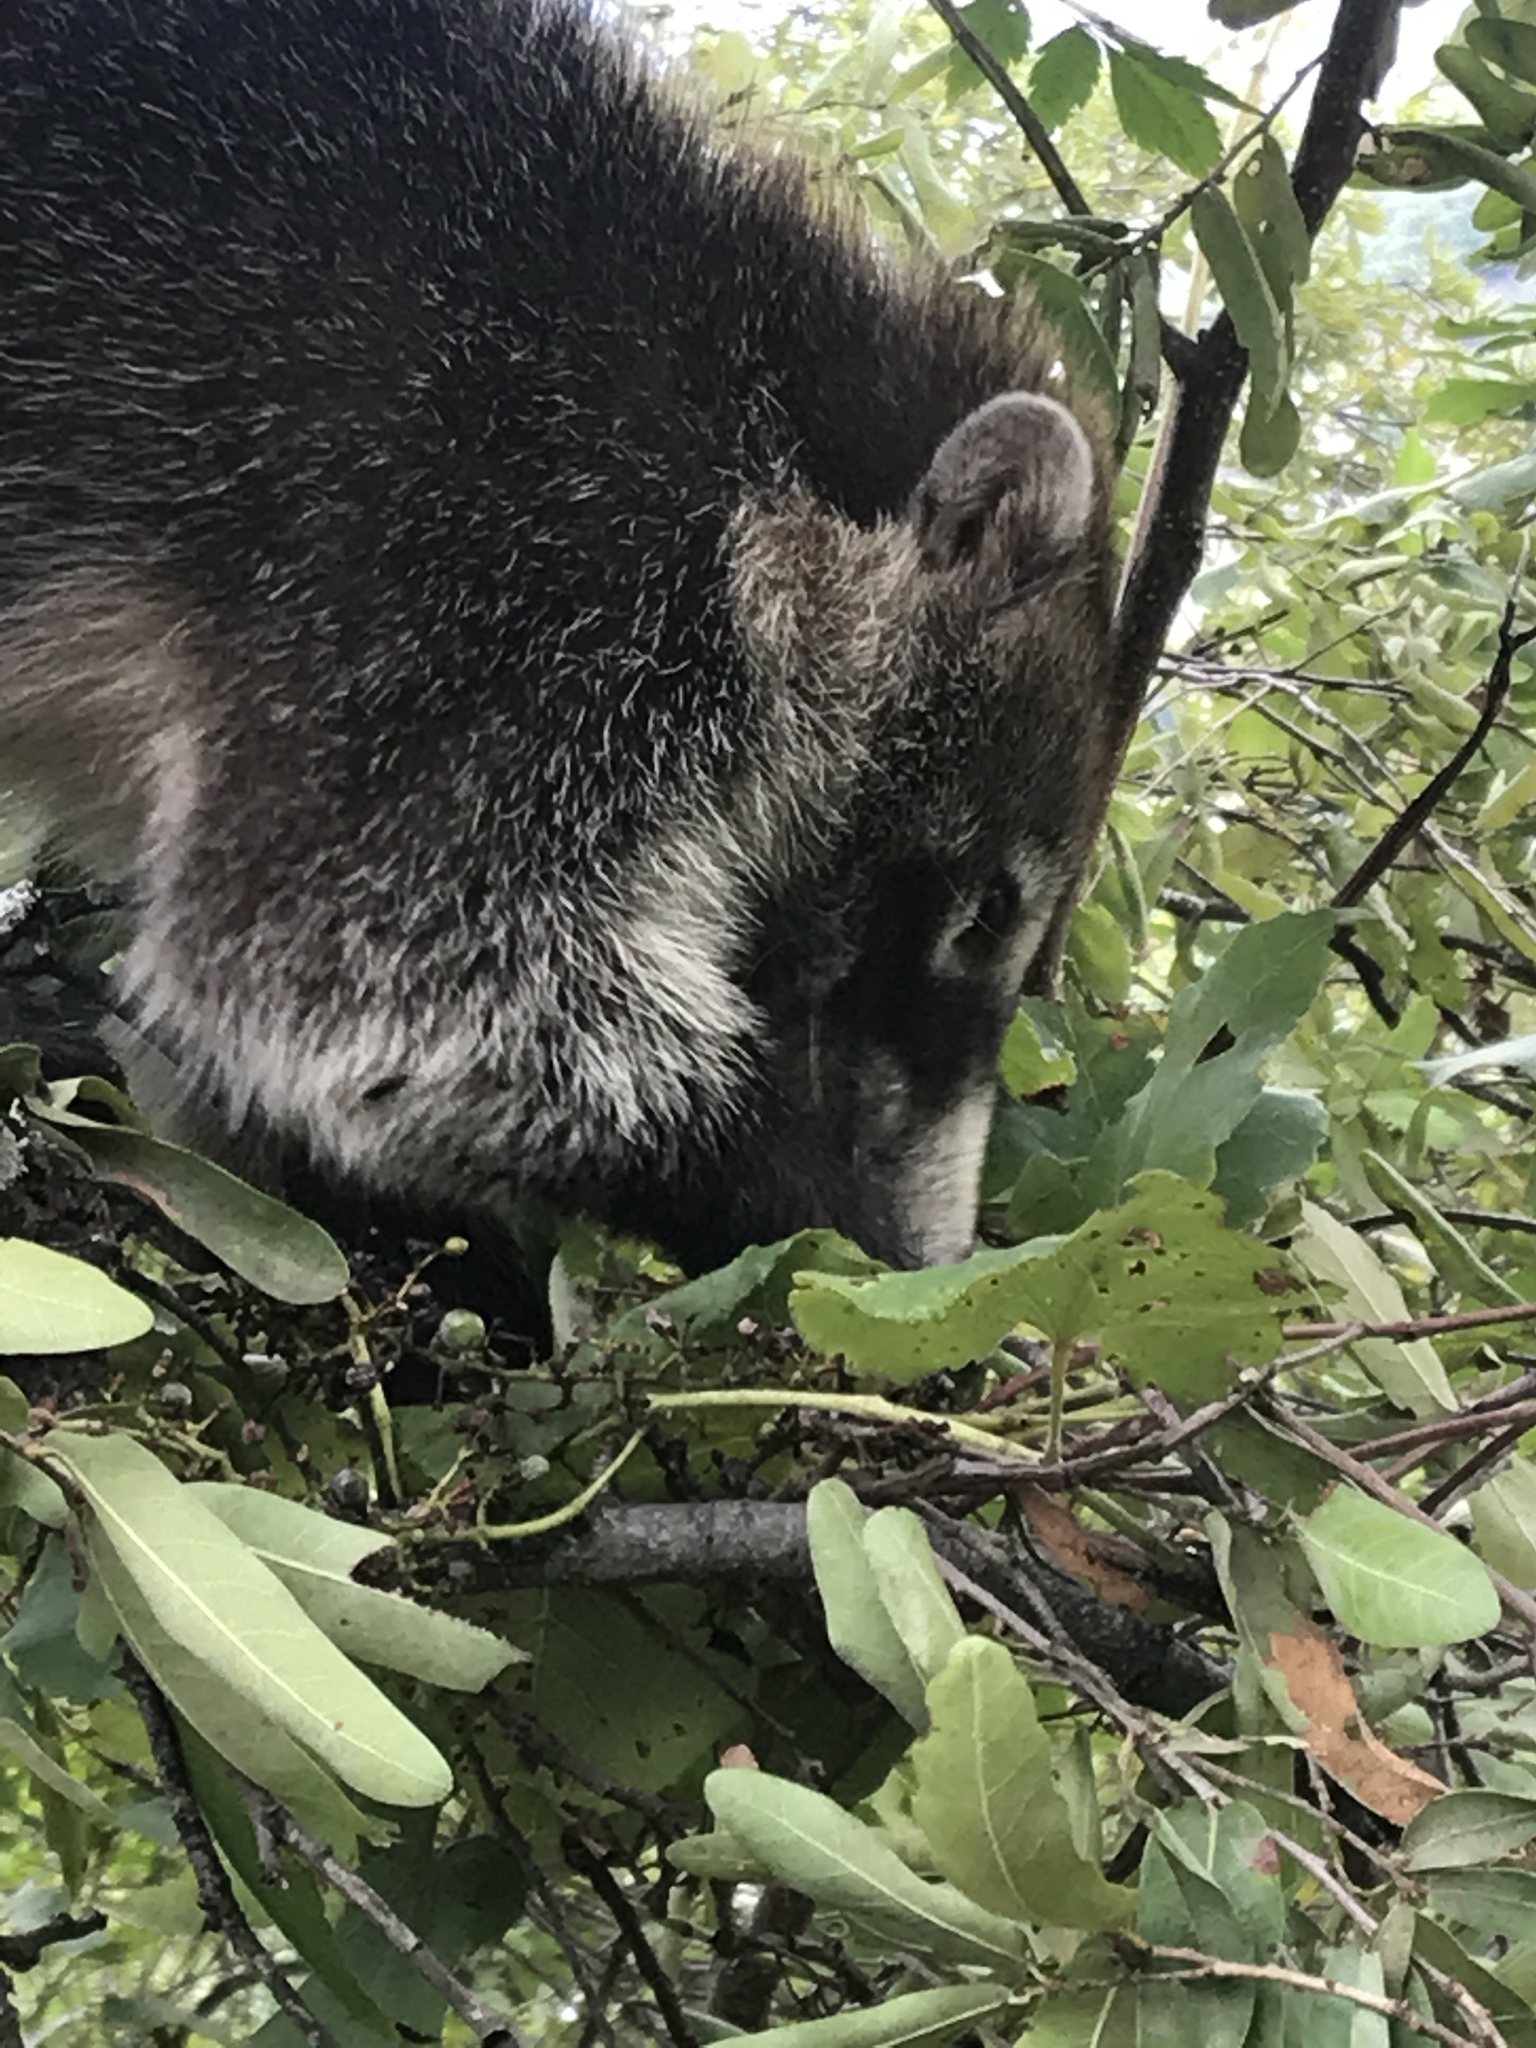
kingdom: Animalia
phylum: Chordata
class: Mammalia
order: Carnivora
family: Procyonidae
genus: Nasua
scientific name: Nasua narica
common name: White-nosed coati
